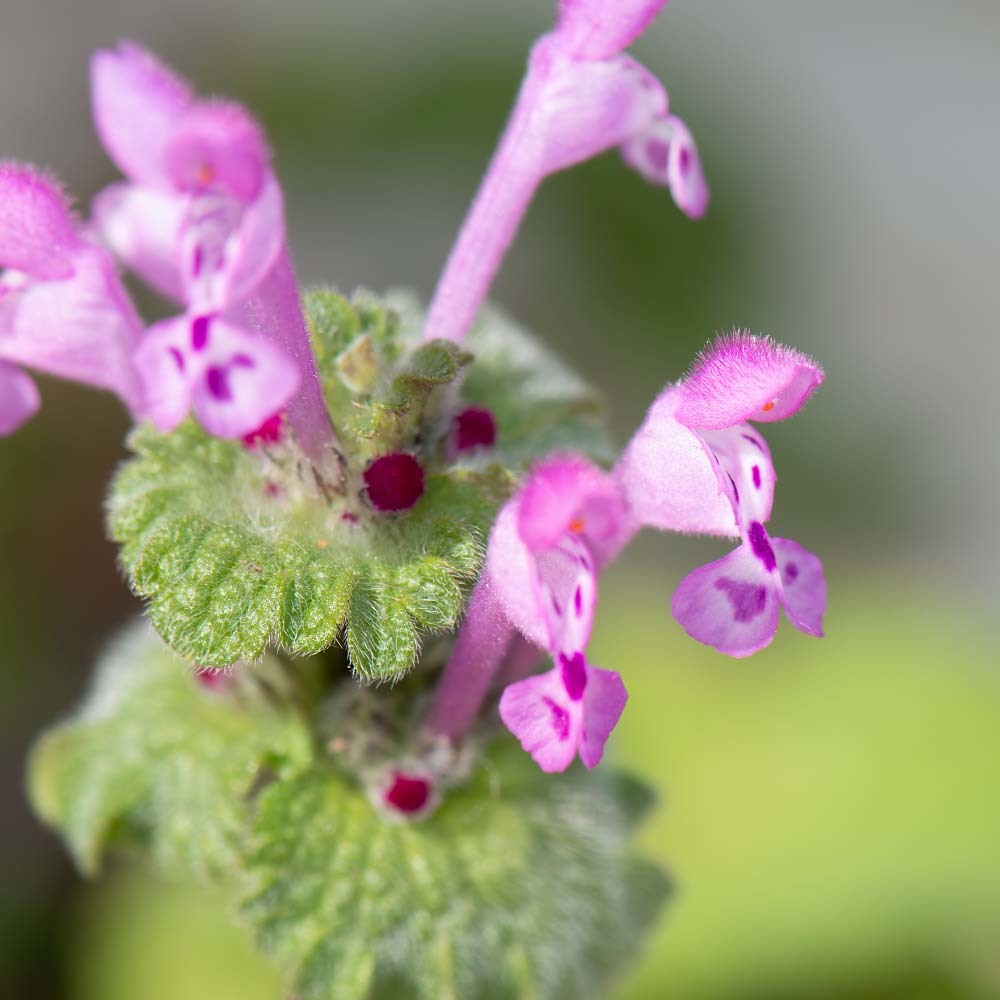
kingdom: Plantae
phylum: Tracheophyta
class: Magnoliopsida
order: Lamiales
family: Lamiaceae
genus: Lamium
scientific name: Lamium amplexicaule
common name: Henbit dead-nettle
